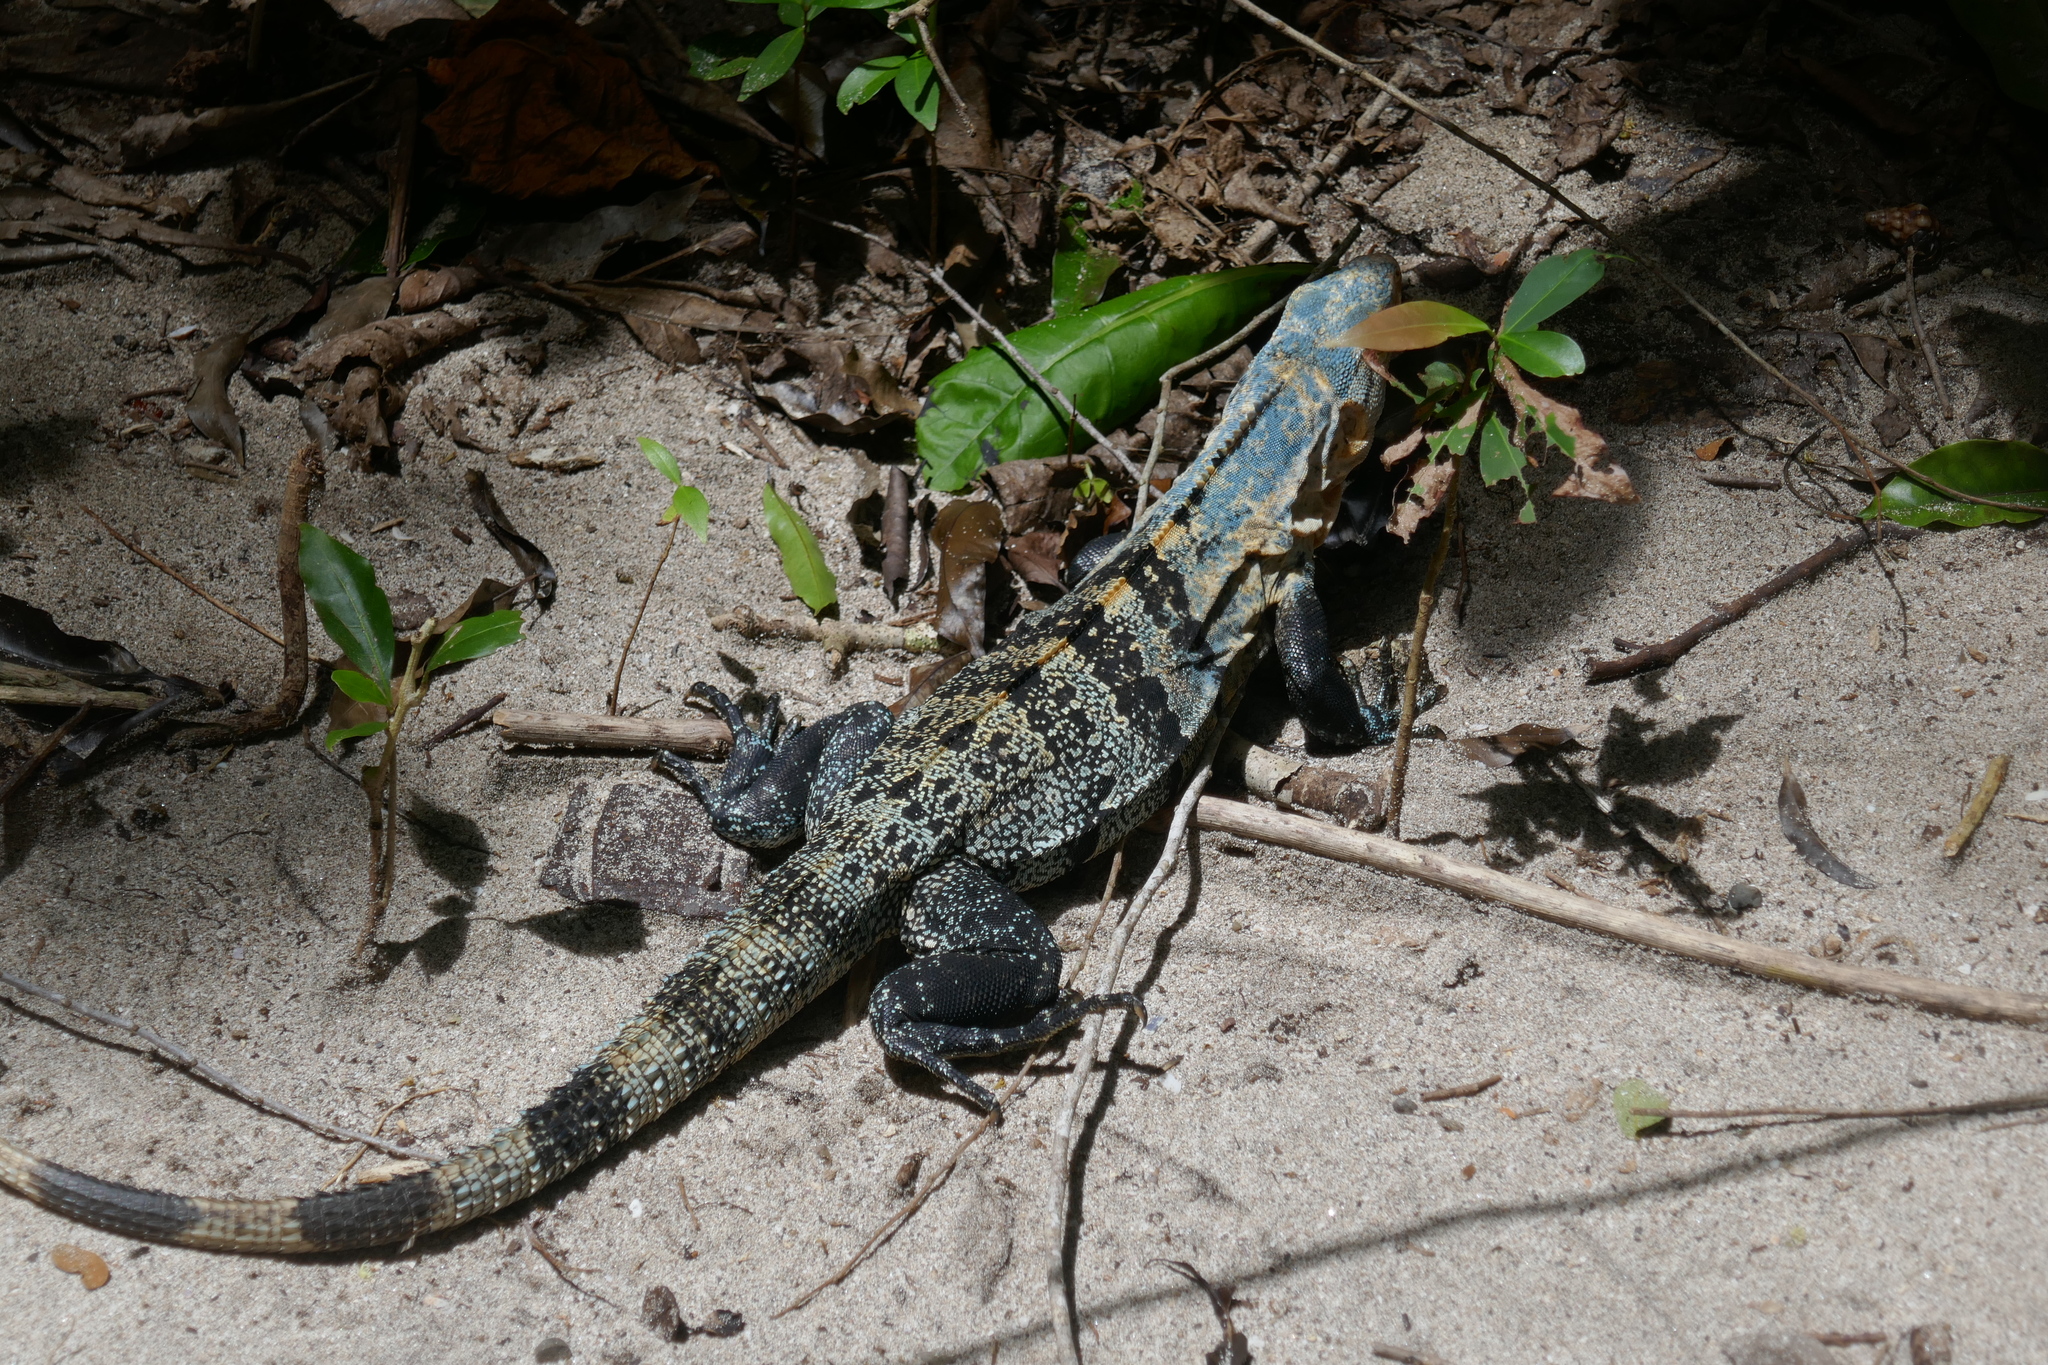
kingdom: Animalia
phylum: Chordata
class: Squamata
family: Iguanidae
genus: Ctenosaura
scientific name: Ctenosaura similis
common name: Black spiny-tailed iguana
